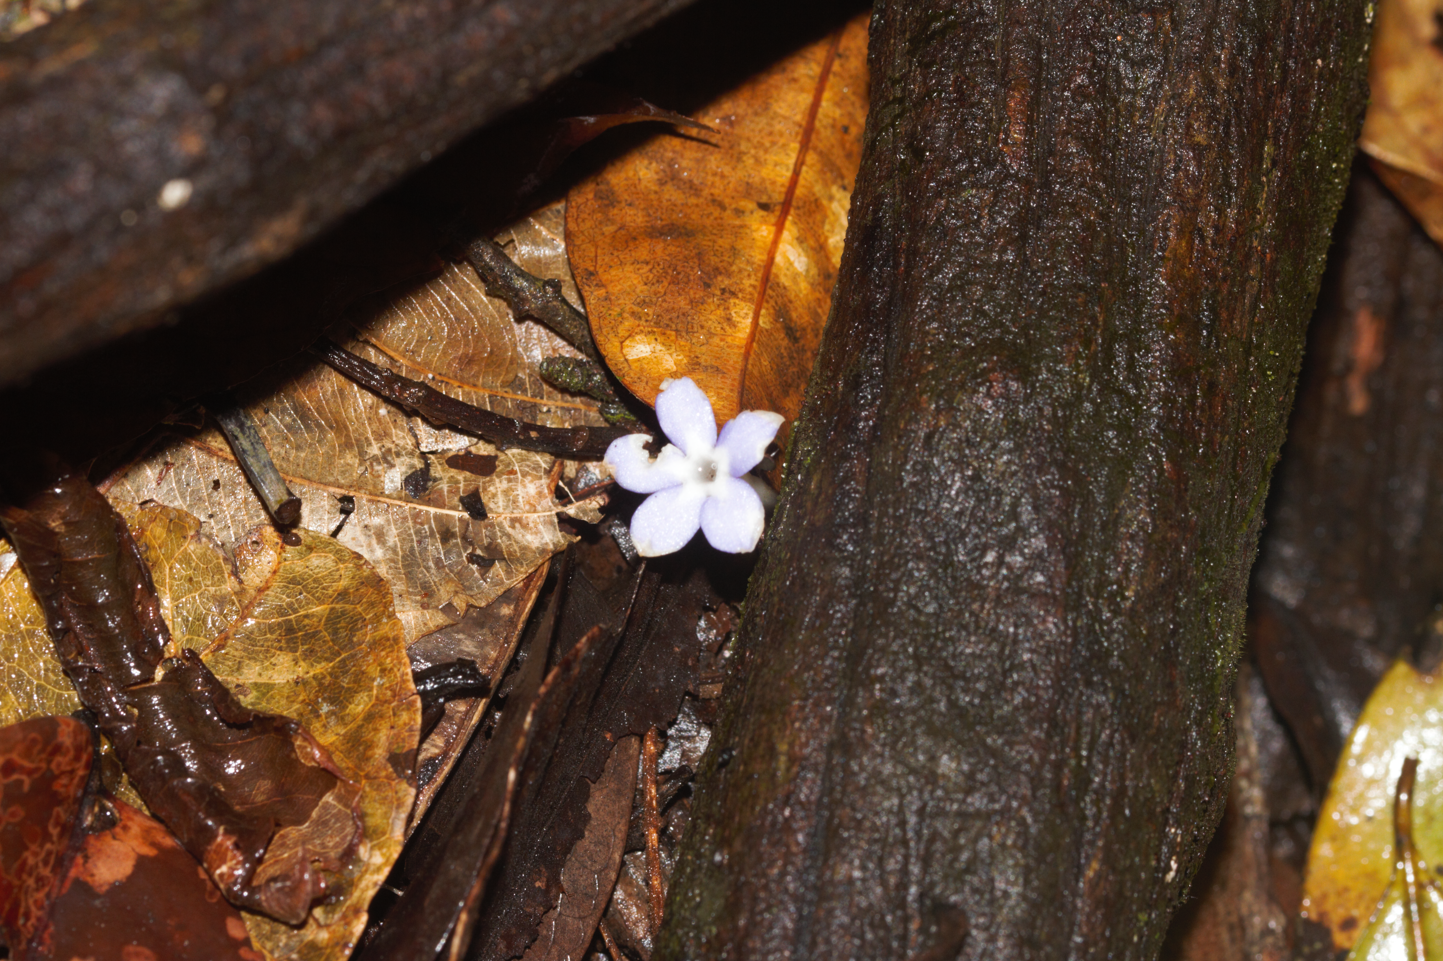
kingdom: Plantae
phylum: Tracheophyta
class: Magnoliopsida
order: Gentianales
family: Gentianaceae
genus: Voyria
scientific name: Voyria caerulea
